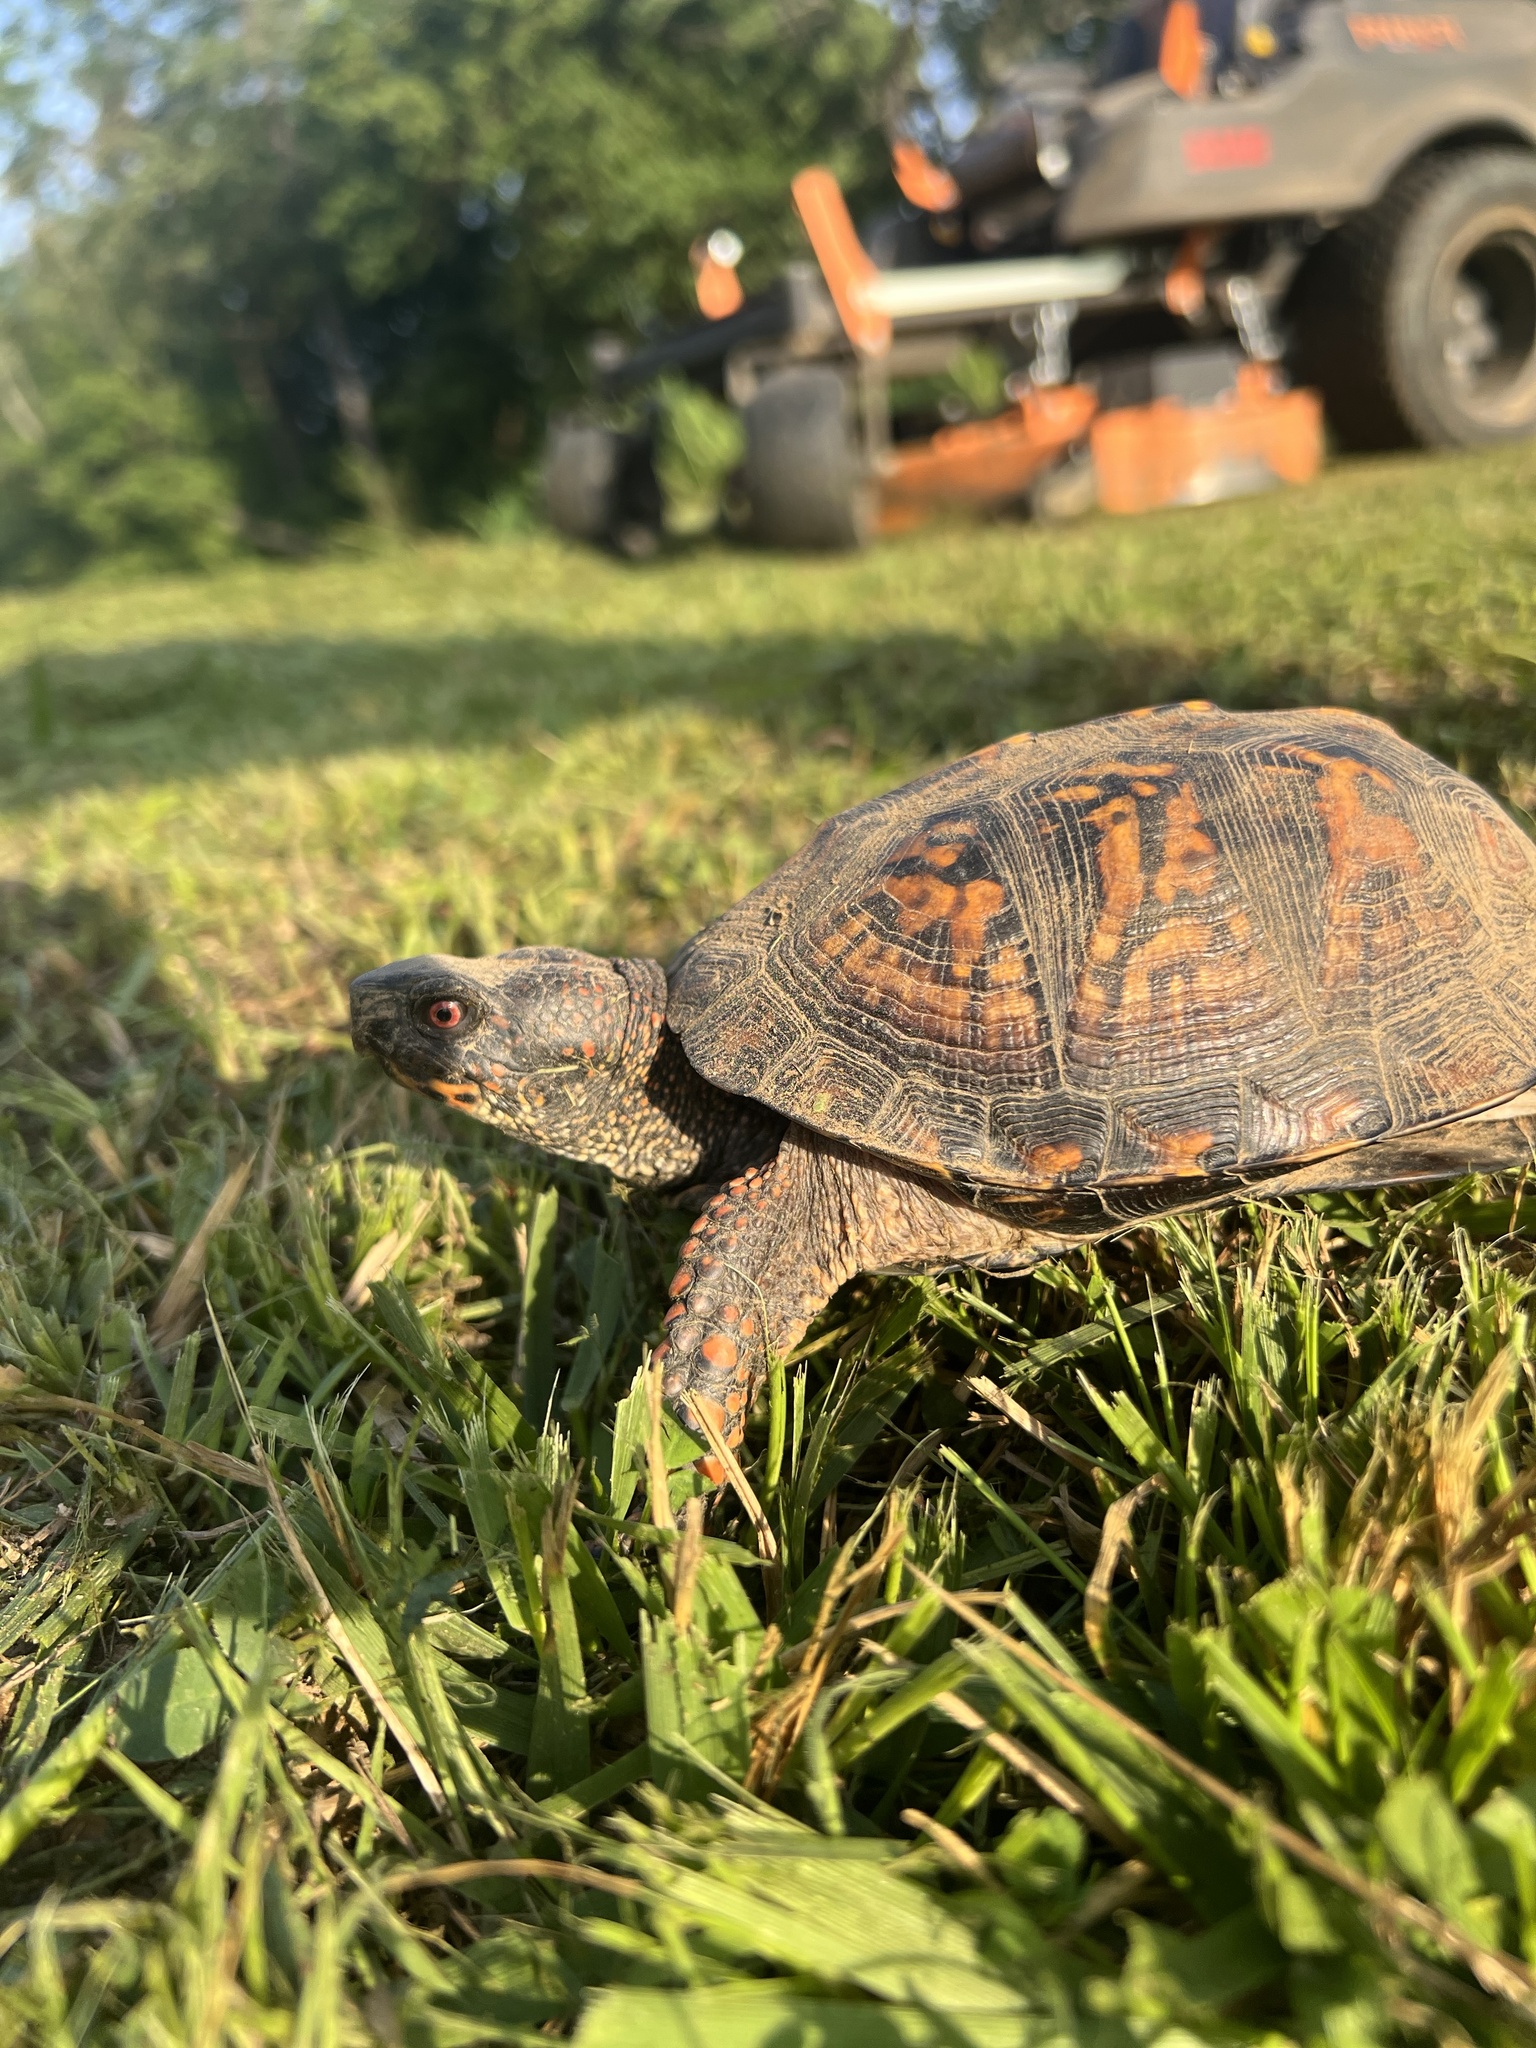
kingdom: Animalia
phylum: Chordata
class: Testudines
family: Emydidae
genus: Terrapene
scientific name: Terrapene carolina
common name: Common box turtle
